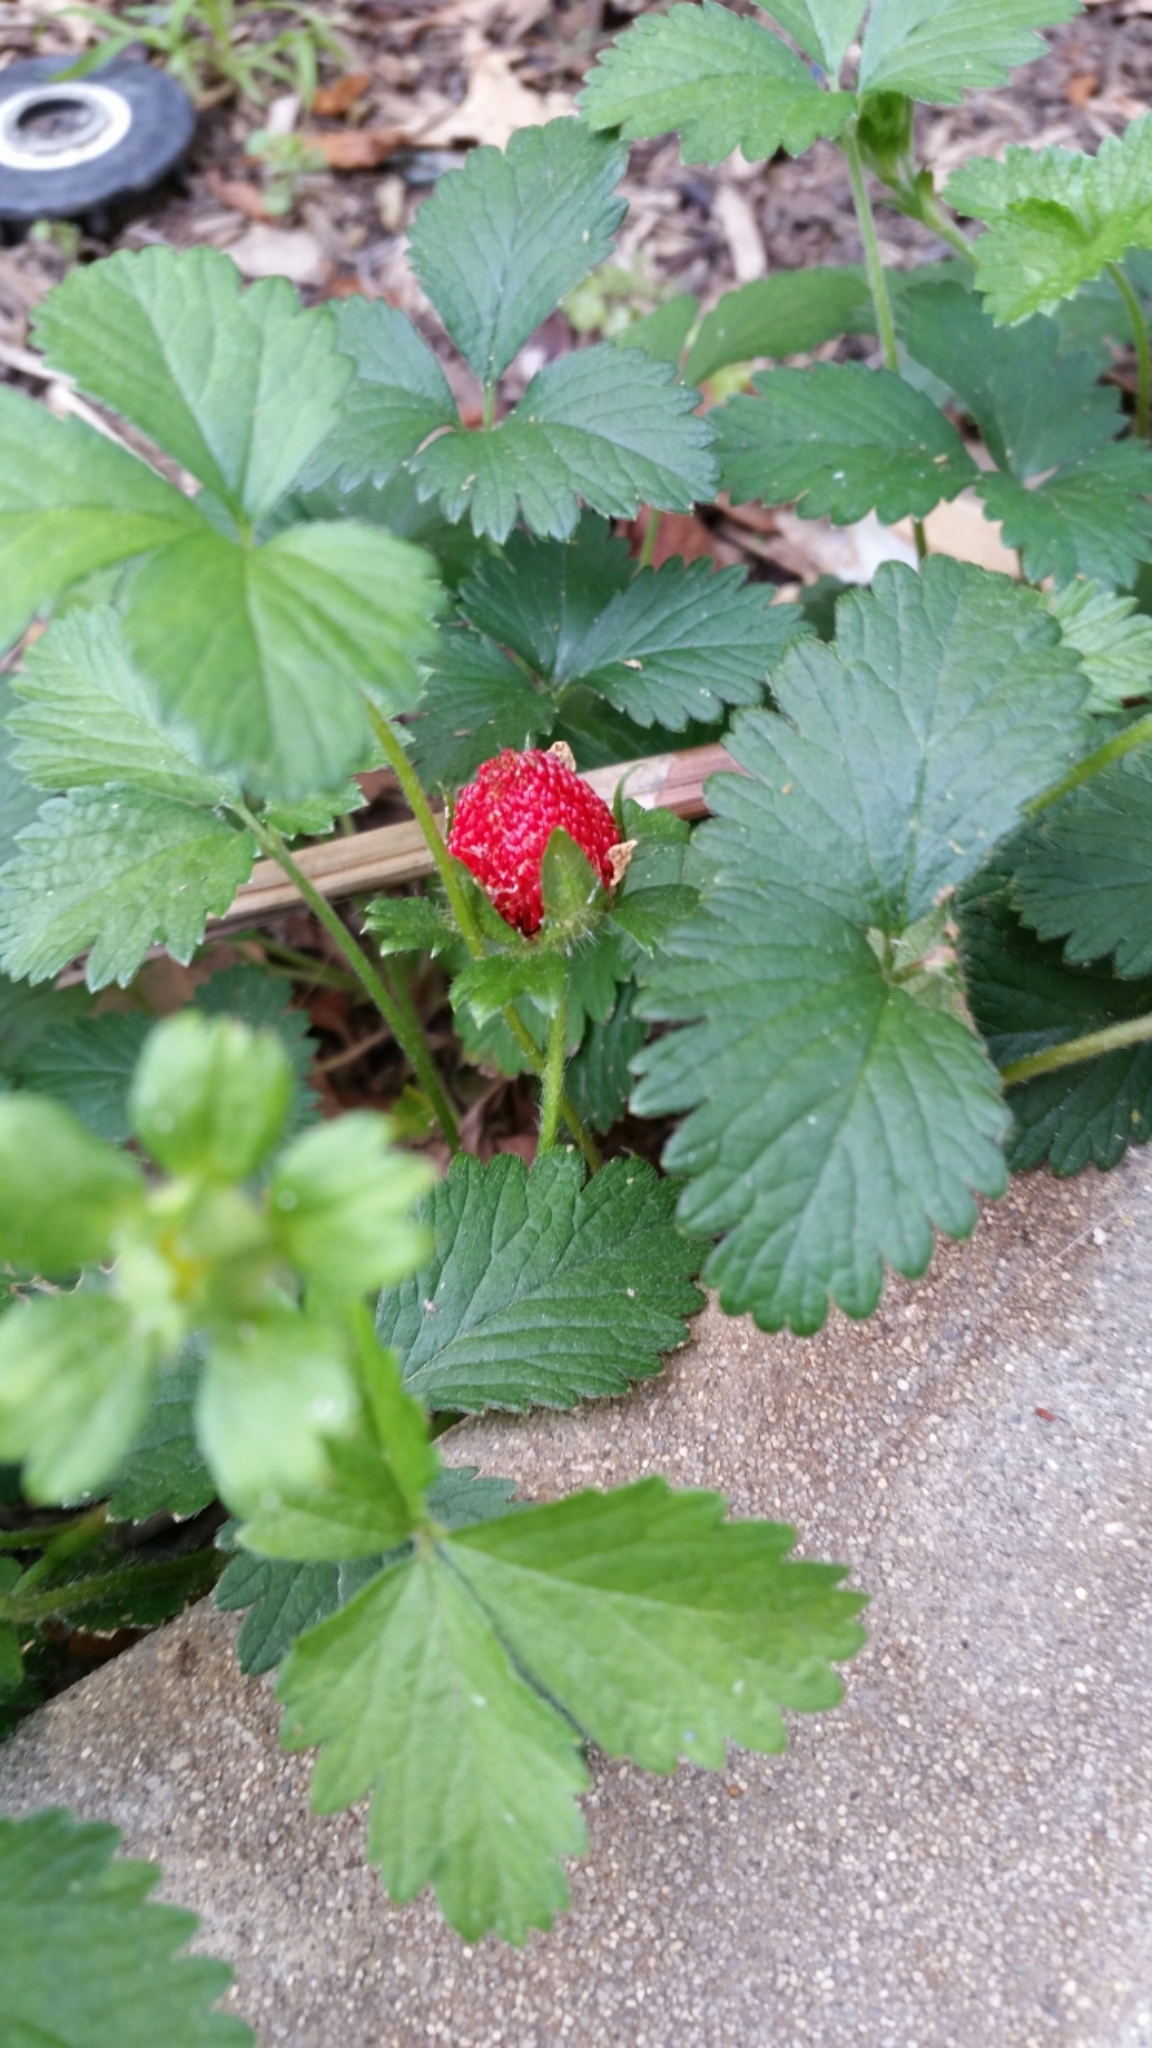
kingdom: Plantae
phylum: Tracheophyta
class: Magnoliopsida
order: Rosales
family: Rosaceae
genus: Potentilla
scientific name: Potentilla indica
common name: Yellow-flowered strawberry
